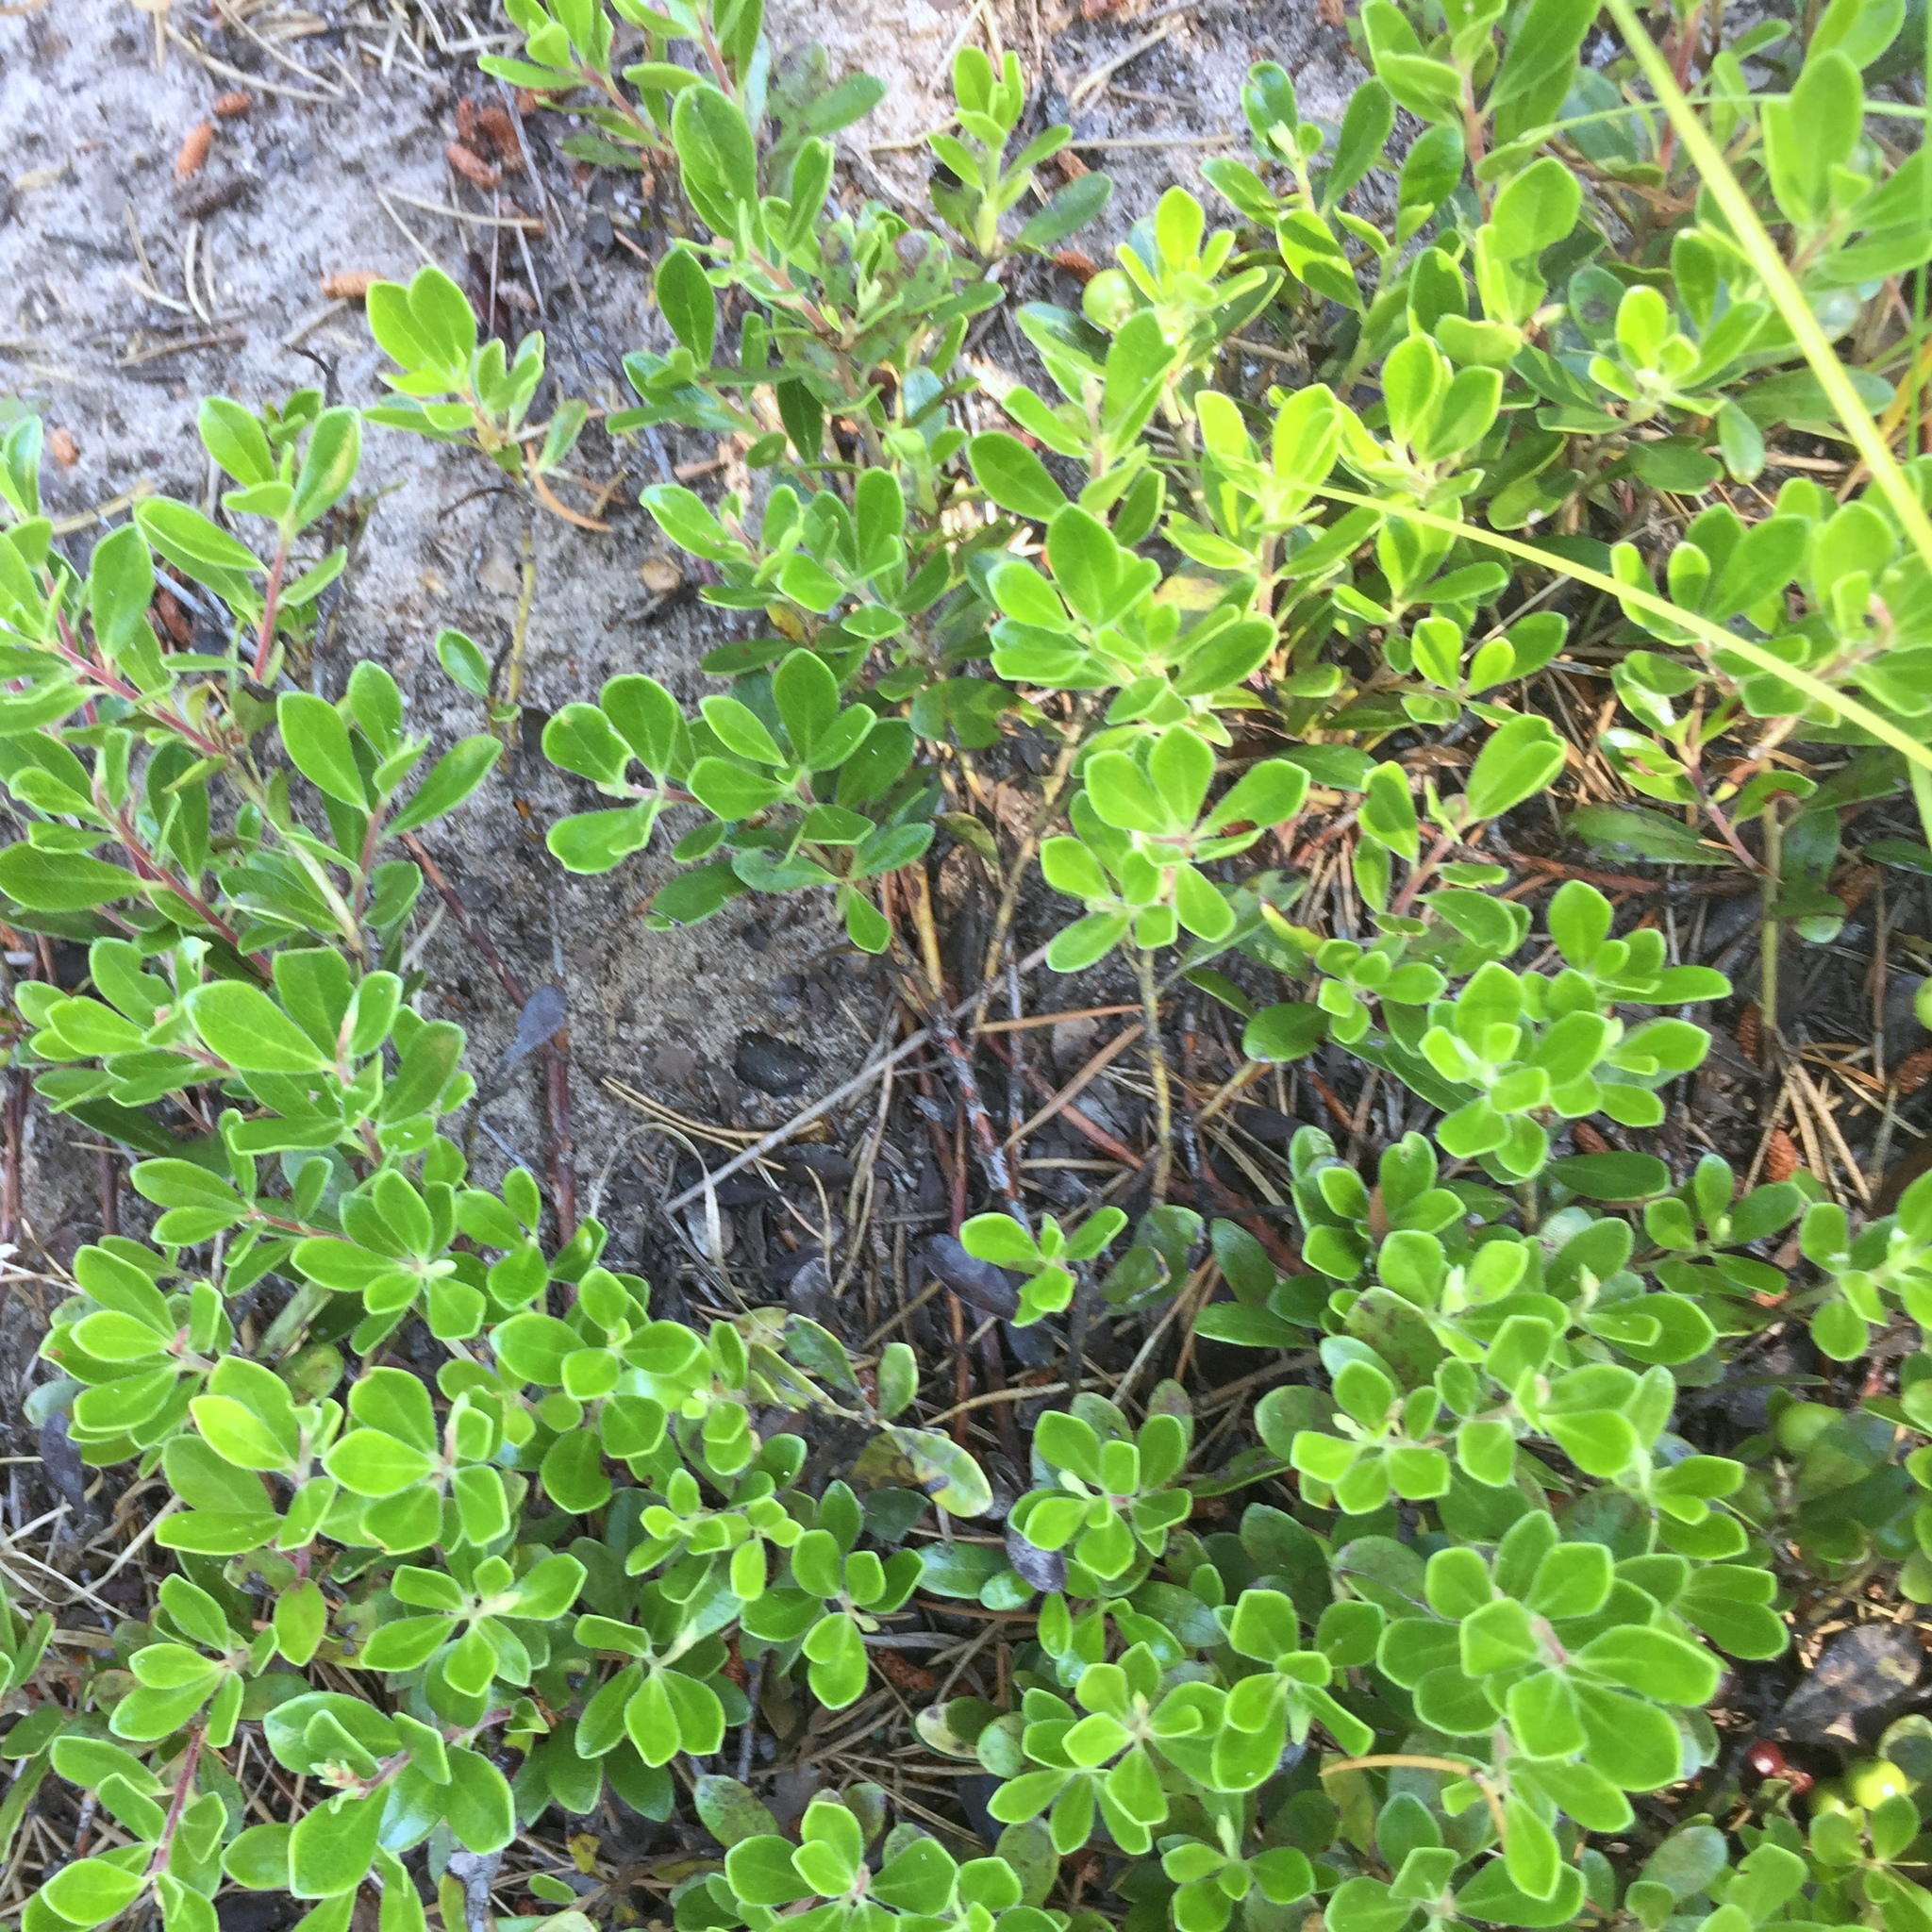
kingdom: Plantae
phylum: Tracheophyta
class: Magnoliopsida
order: Ericales
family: Ericaceae
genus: Arctostaphylos
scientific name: Arctostaphylos uva-ursi
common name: Bearberry
